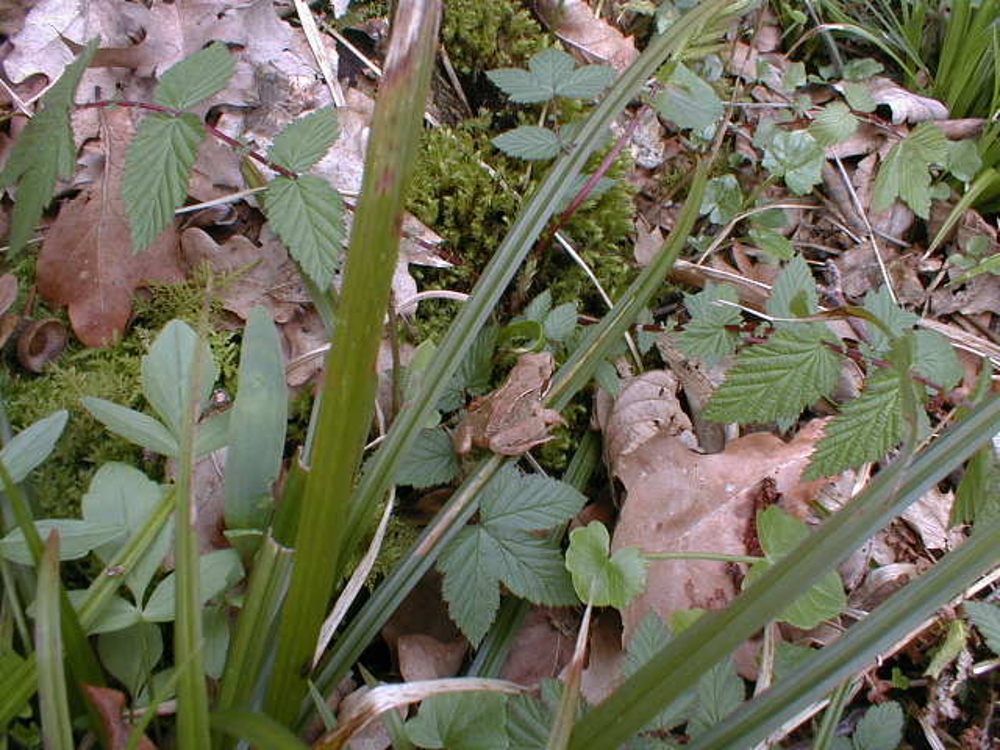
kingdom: Animalia
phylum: Chordata
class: Amphibia
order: Anura
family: Ranidae
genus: Rana
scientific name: Rana temporaria
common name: Common frog
